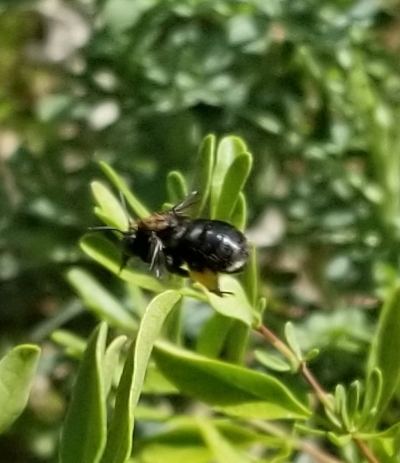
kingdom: Animalia
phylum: Arthropoda
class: Insecta
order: Hymenoptera
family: Apidae
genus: Melissodes
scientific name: Melissodes bimaculatus
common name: Two-spotted long-horned bee
